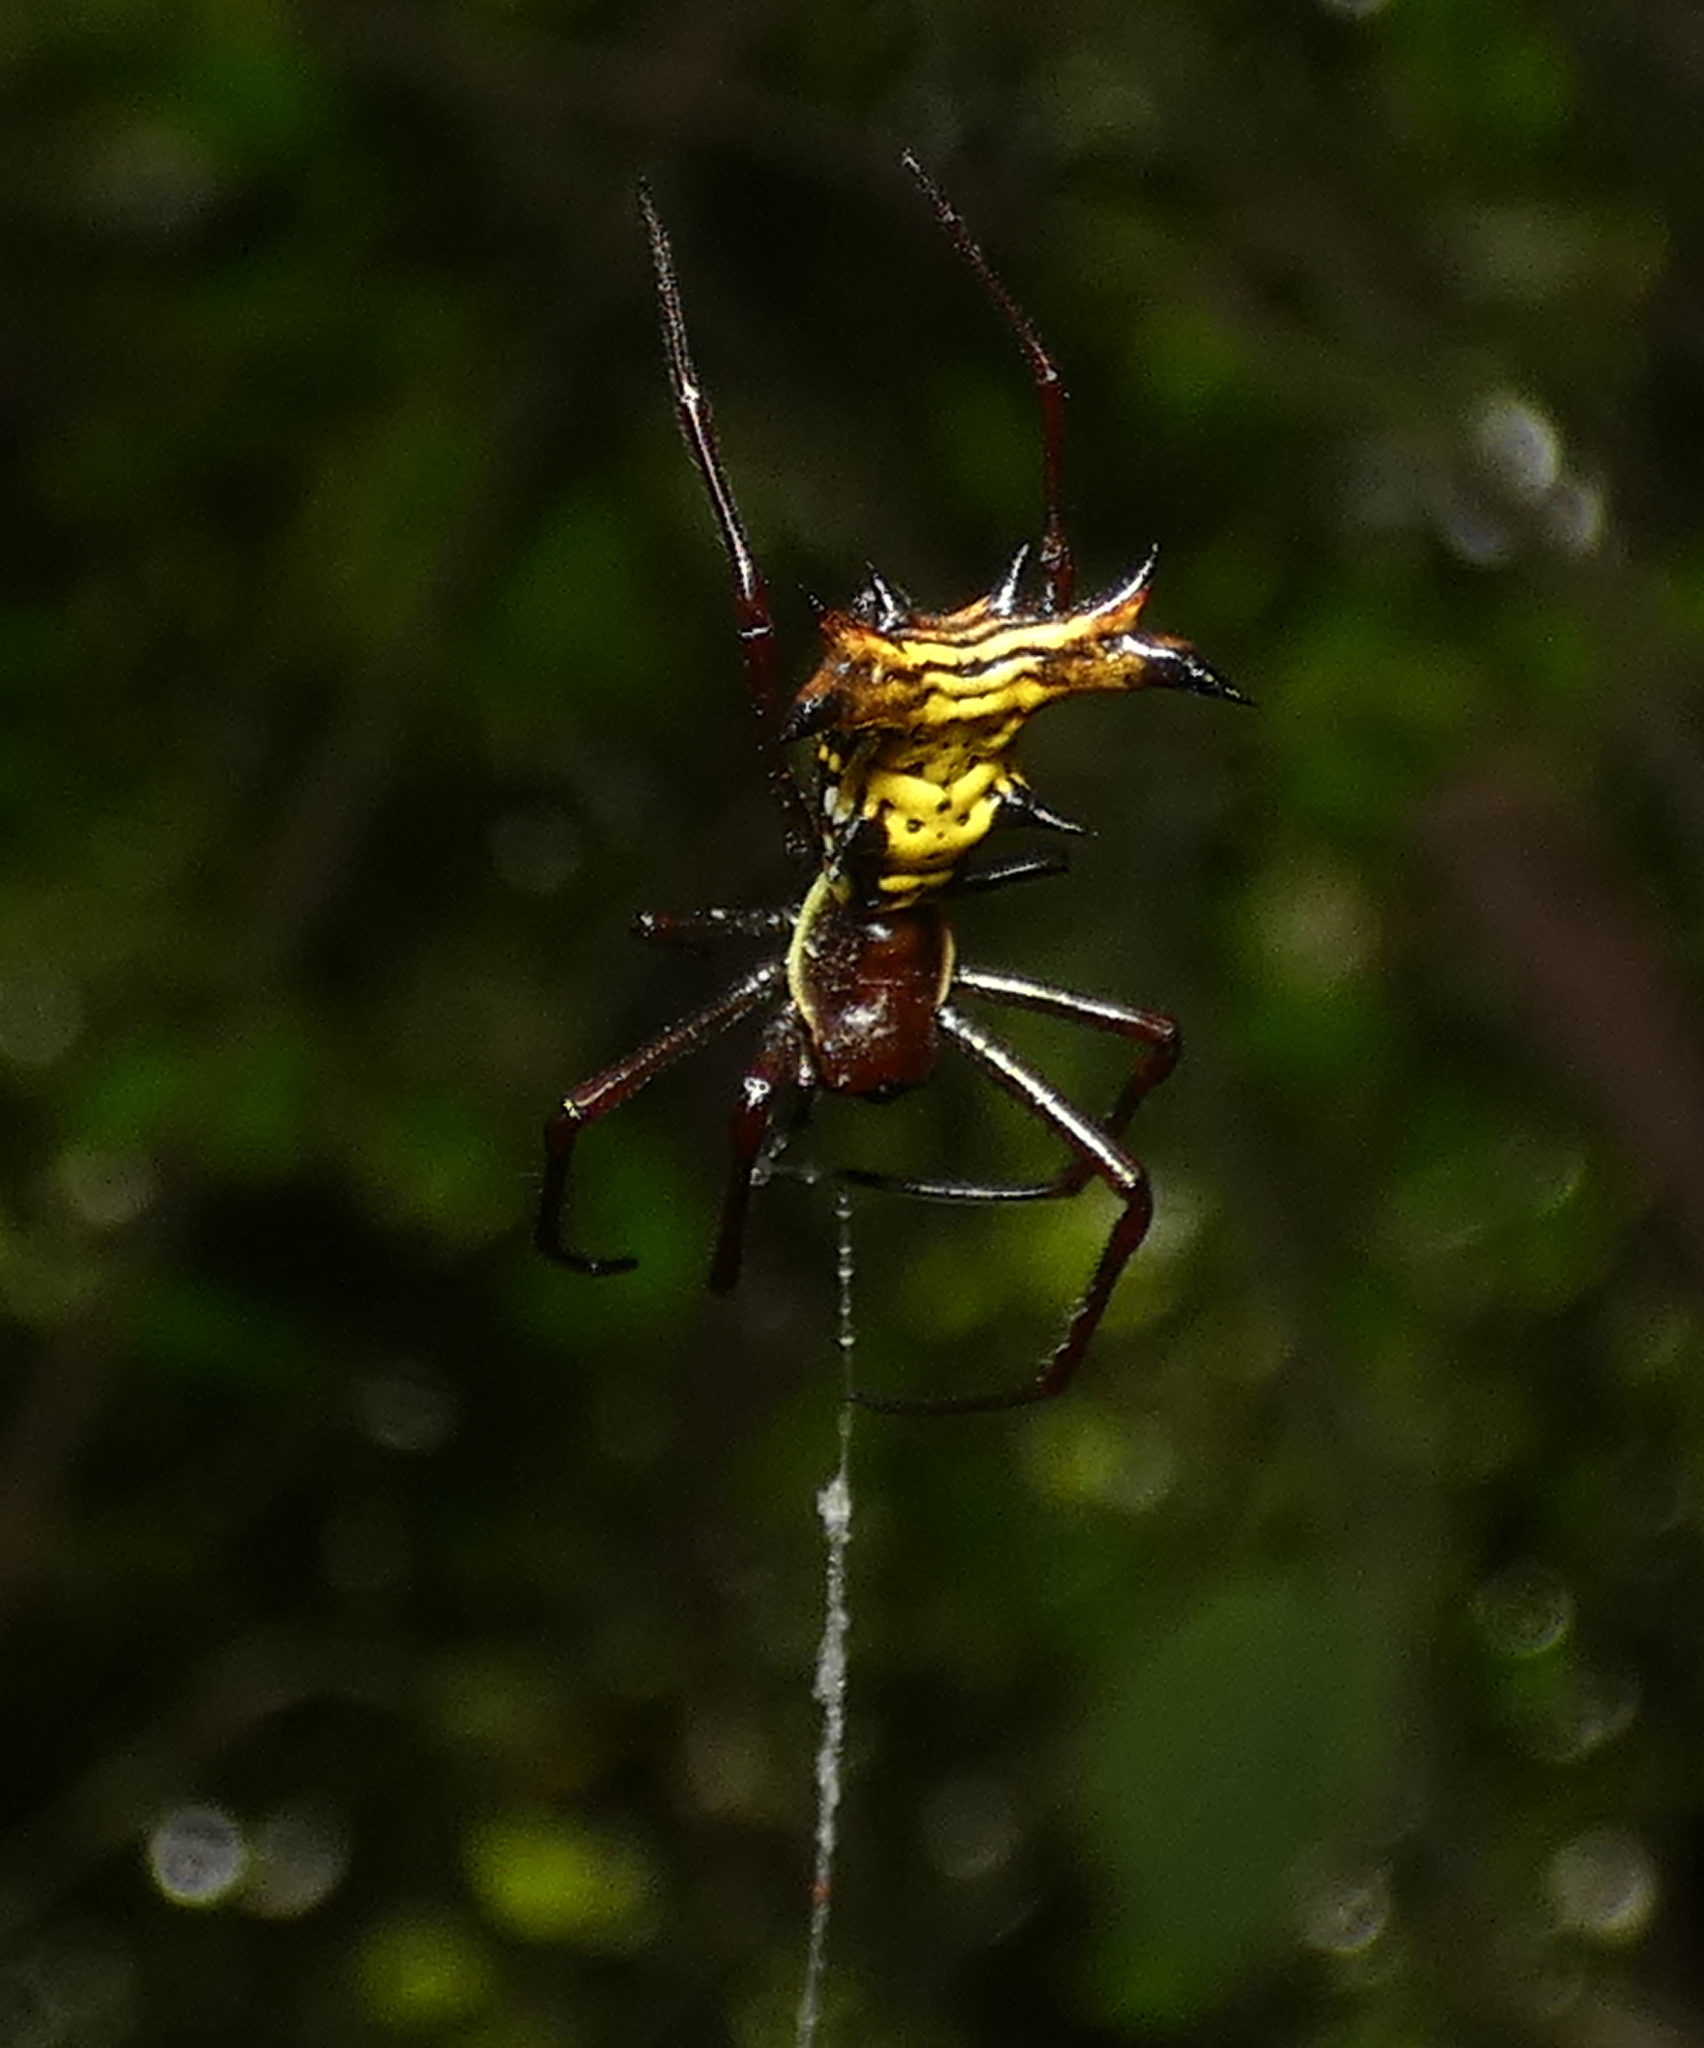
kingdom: Animalia
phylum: Arthropoda
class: Arachnida
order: Araneae
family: Araneidae
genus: Micrathena
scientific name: Micrathena fissispina
